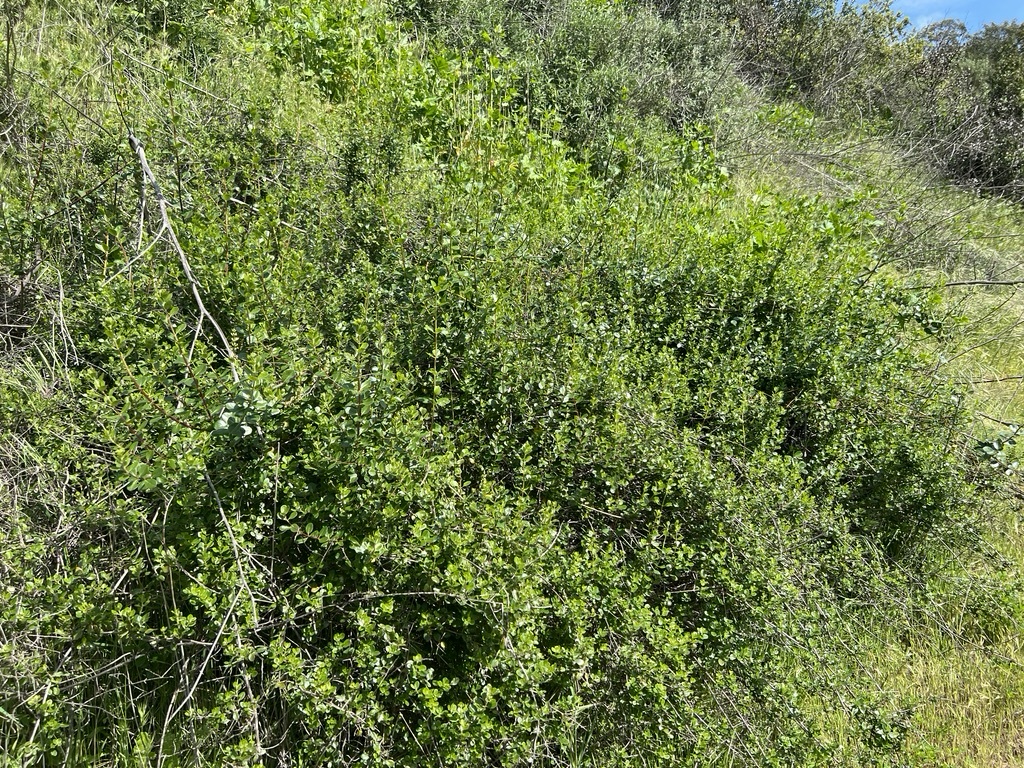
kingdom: Plantae
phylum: Tracheophyta
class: Magnoliopsida
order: Dipsacales
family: Caprifoliaceae
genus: Lonicera
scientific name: Lonicera subspicata
